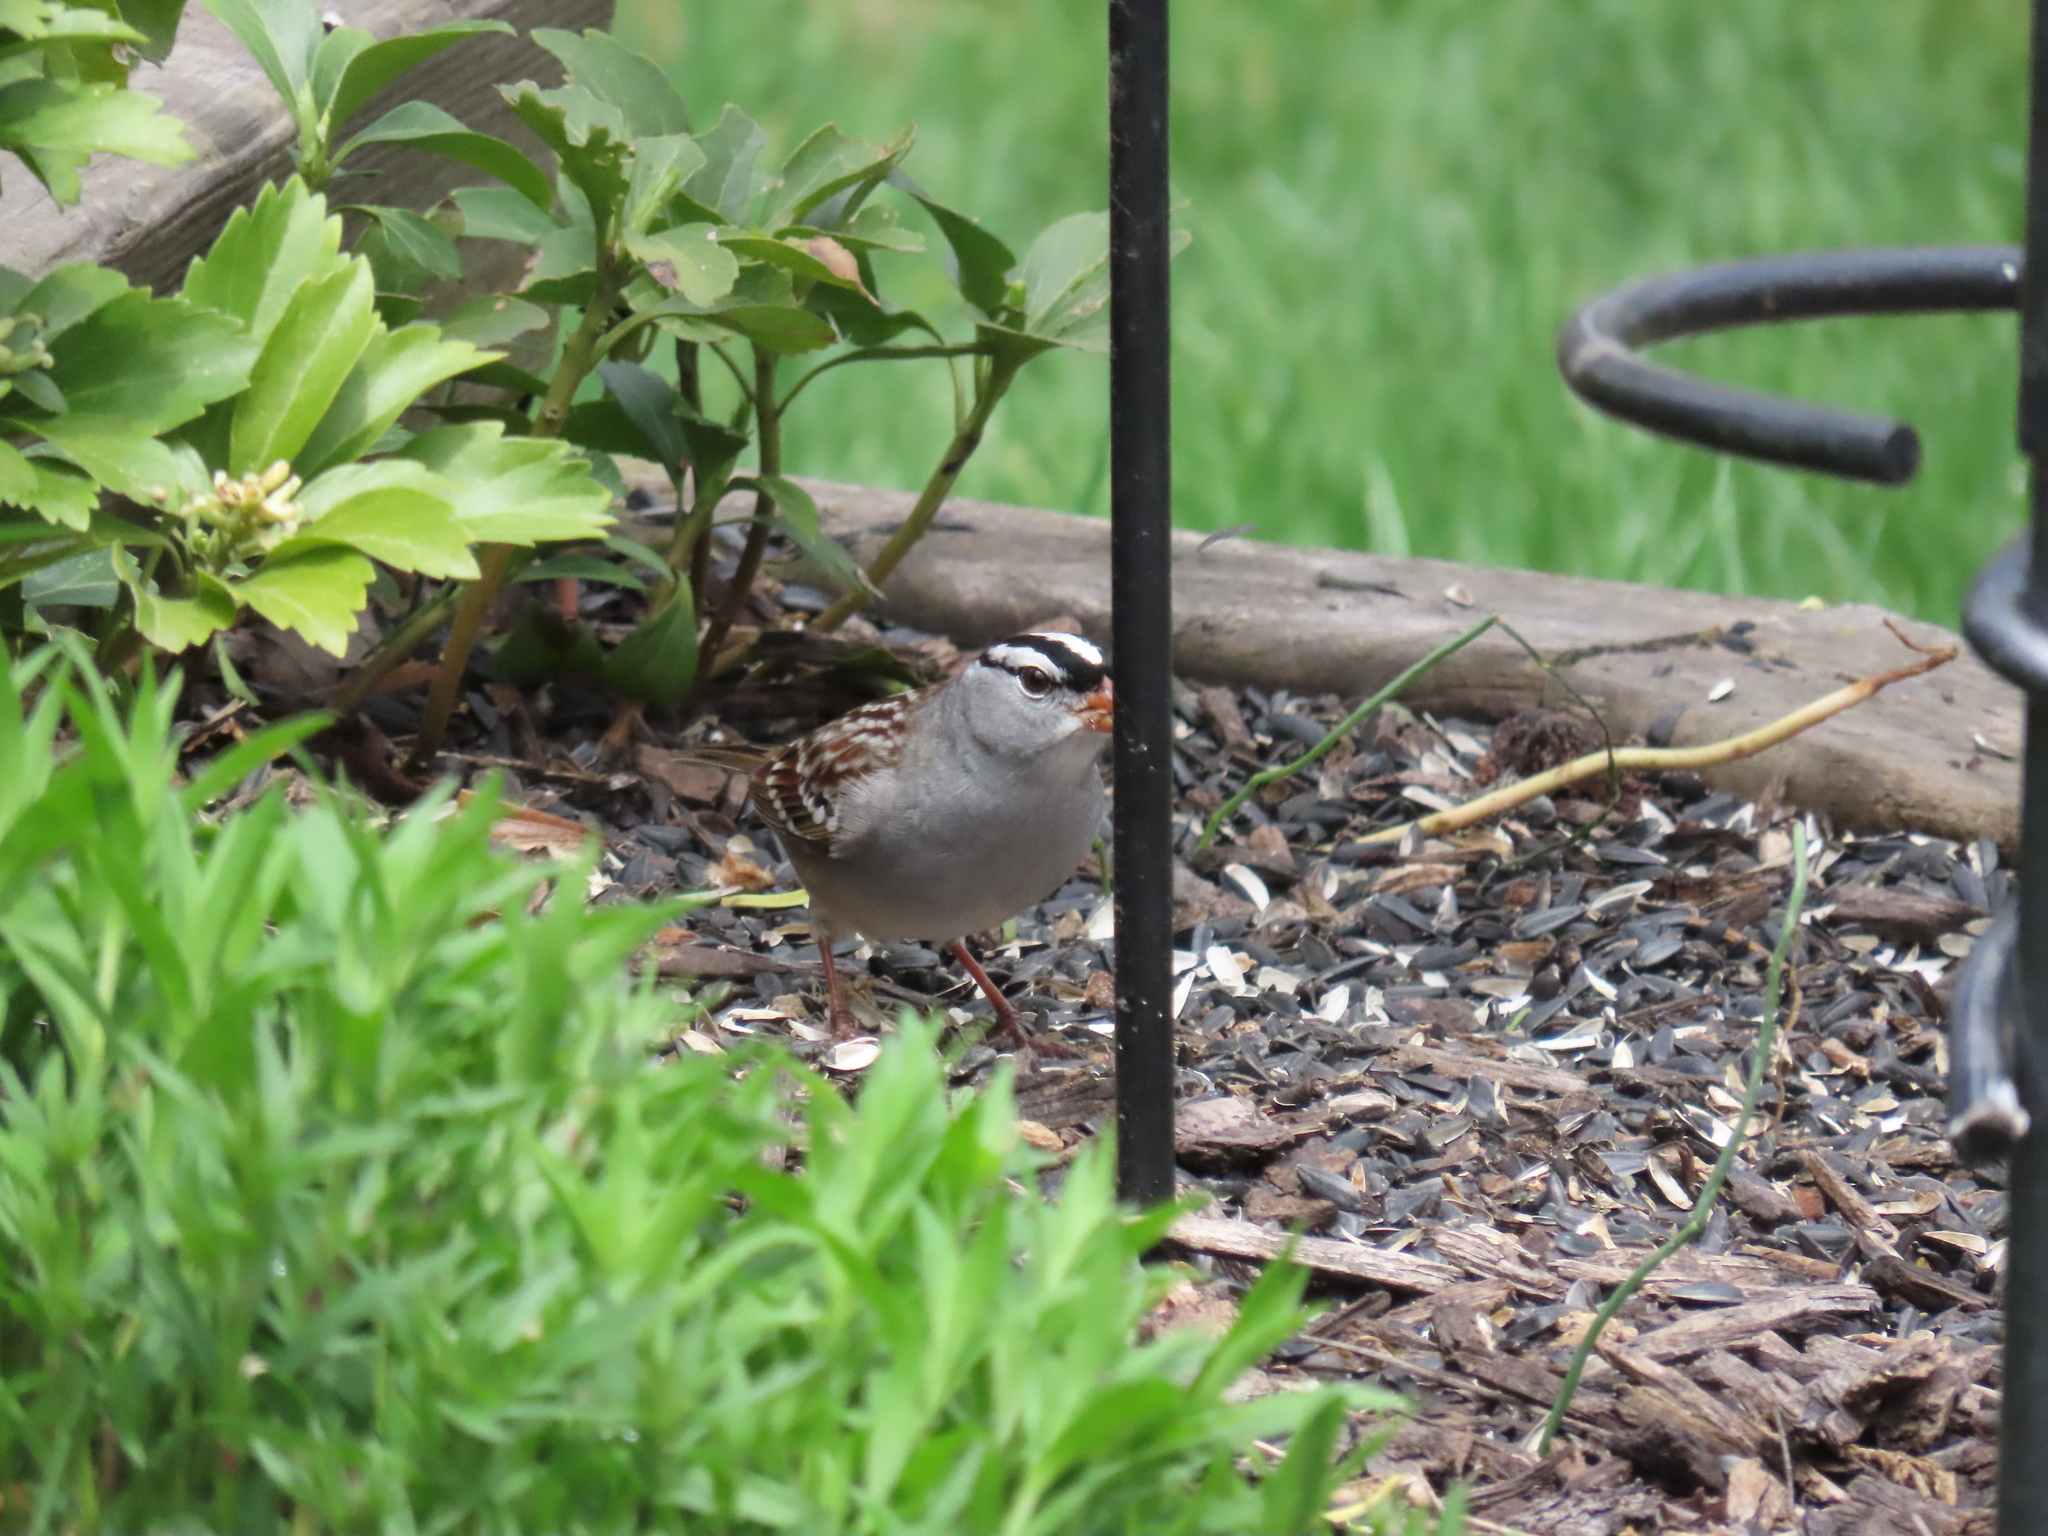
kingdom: Animalia
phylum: Chordata
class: Aves
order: Passeriformes
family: Passerellidae
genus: Zonotrichia
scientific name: Zonotrichia leucophrys
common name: White-crowned sparrow
